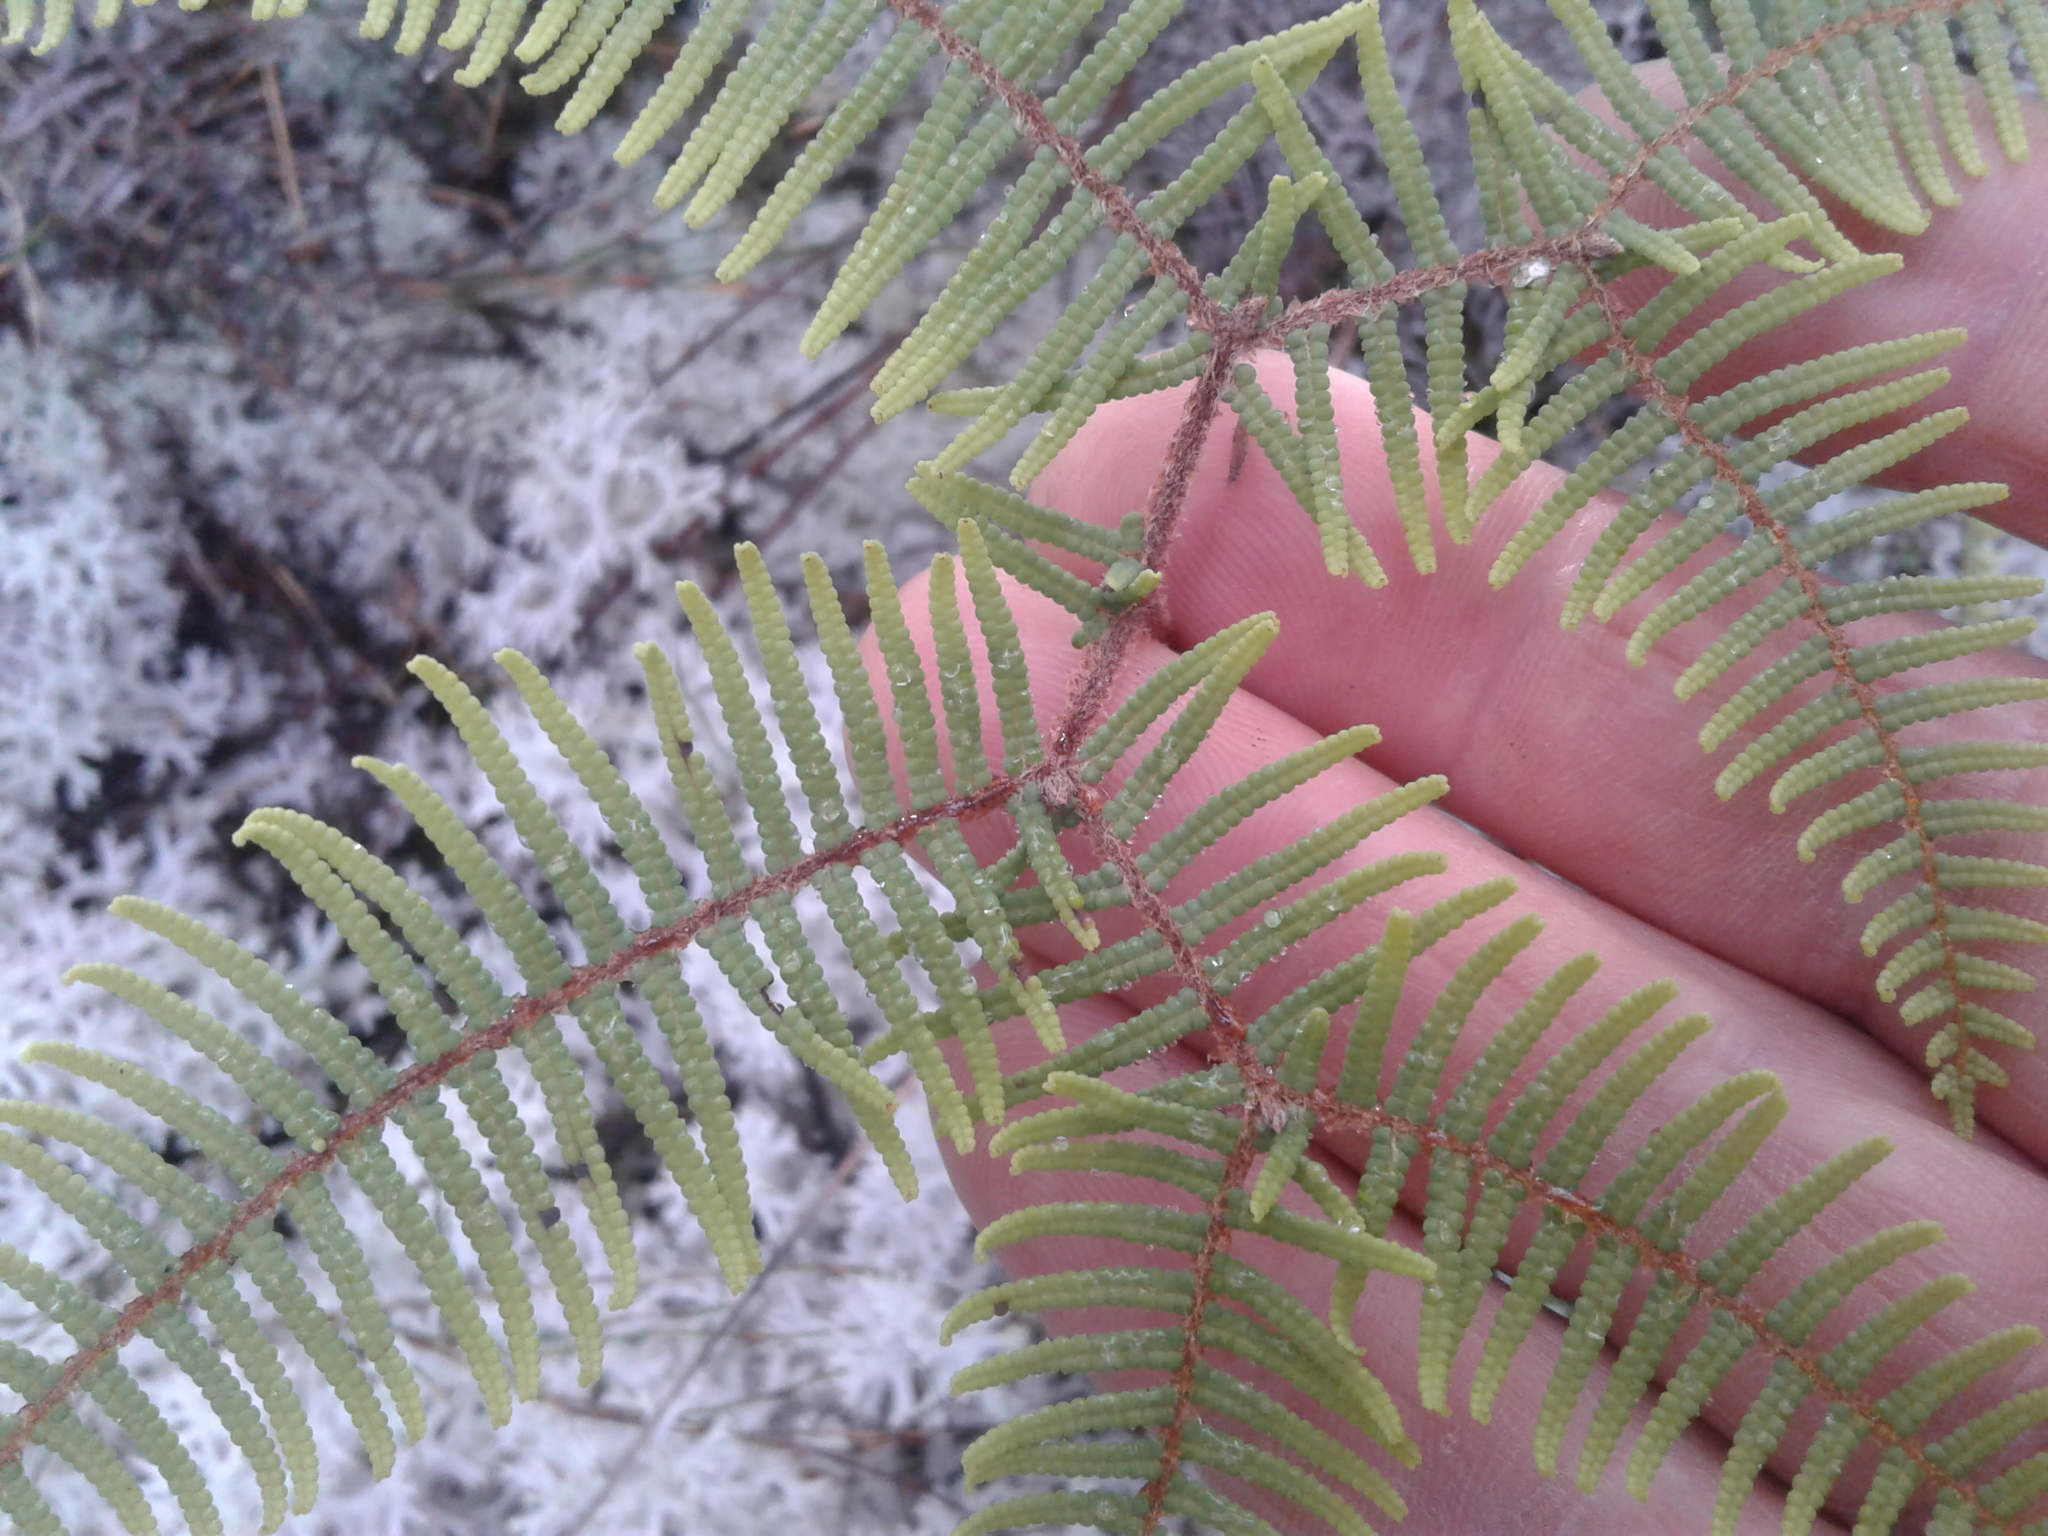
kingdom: Plantae
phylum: Tracheophyta
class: Polypodiopsida
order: Gleicheniales
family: Gleicheniaceae
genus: Gleichenia
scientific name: Gleichenia dicarpa
